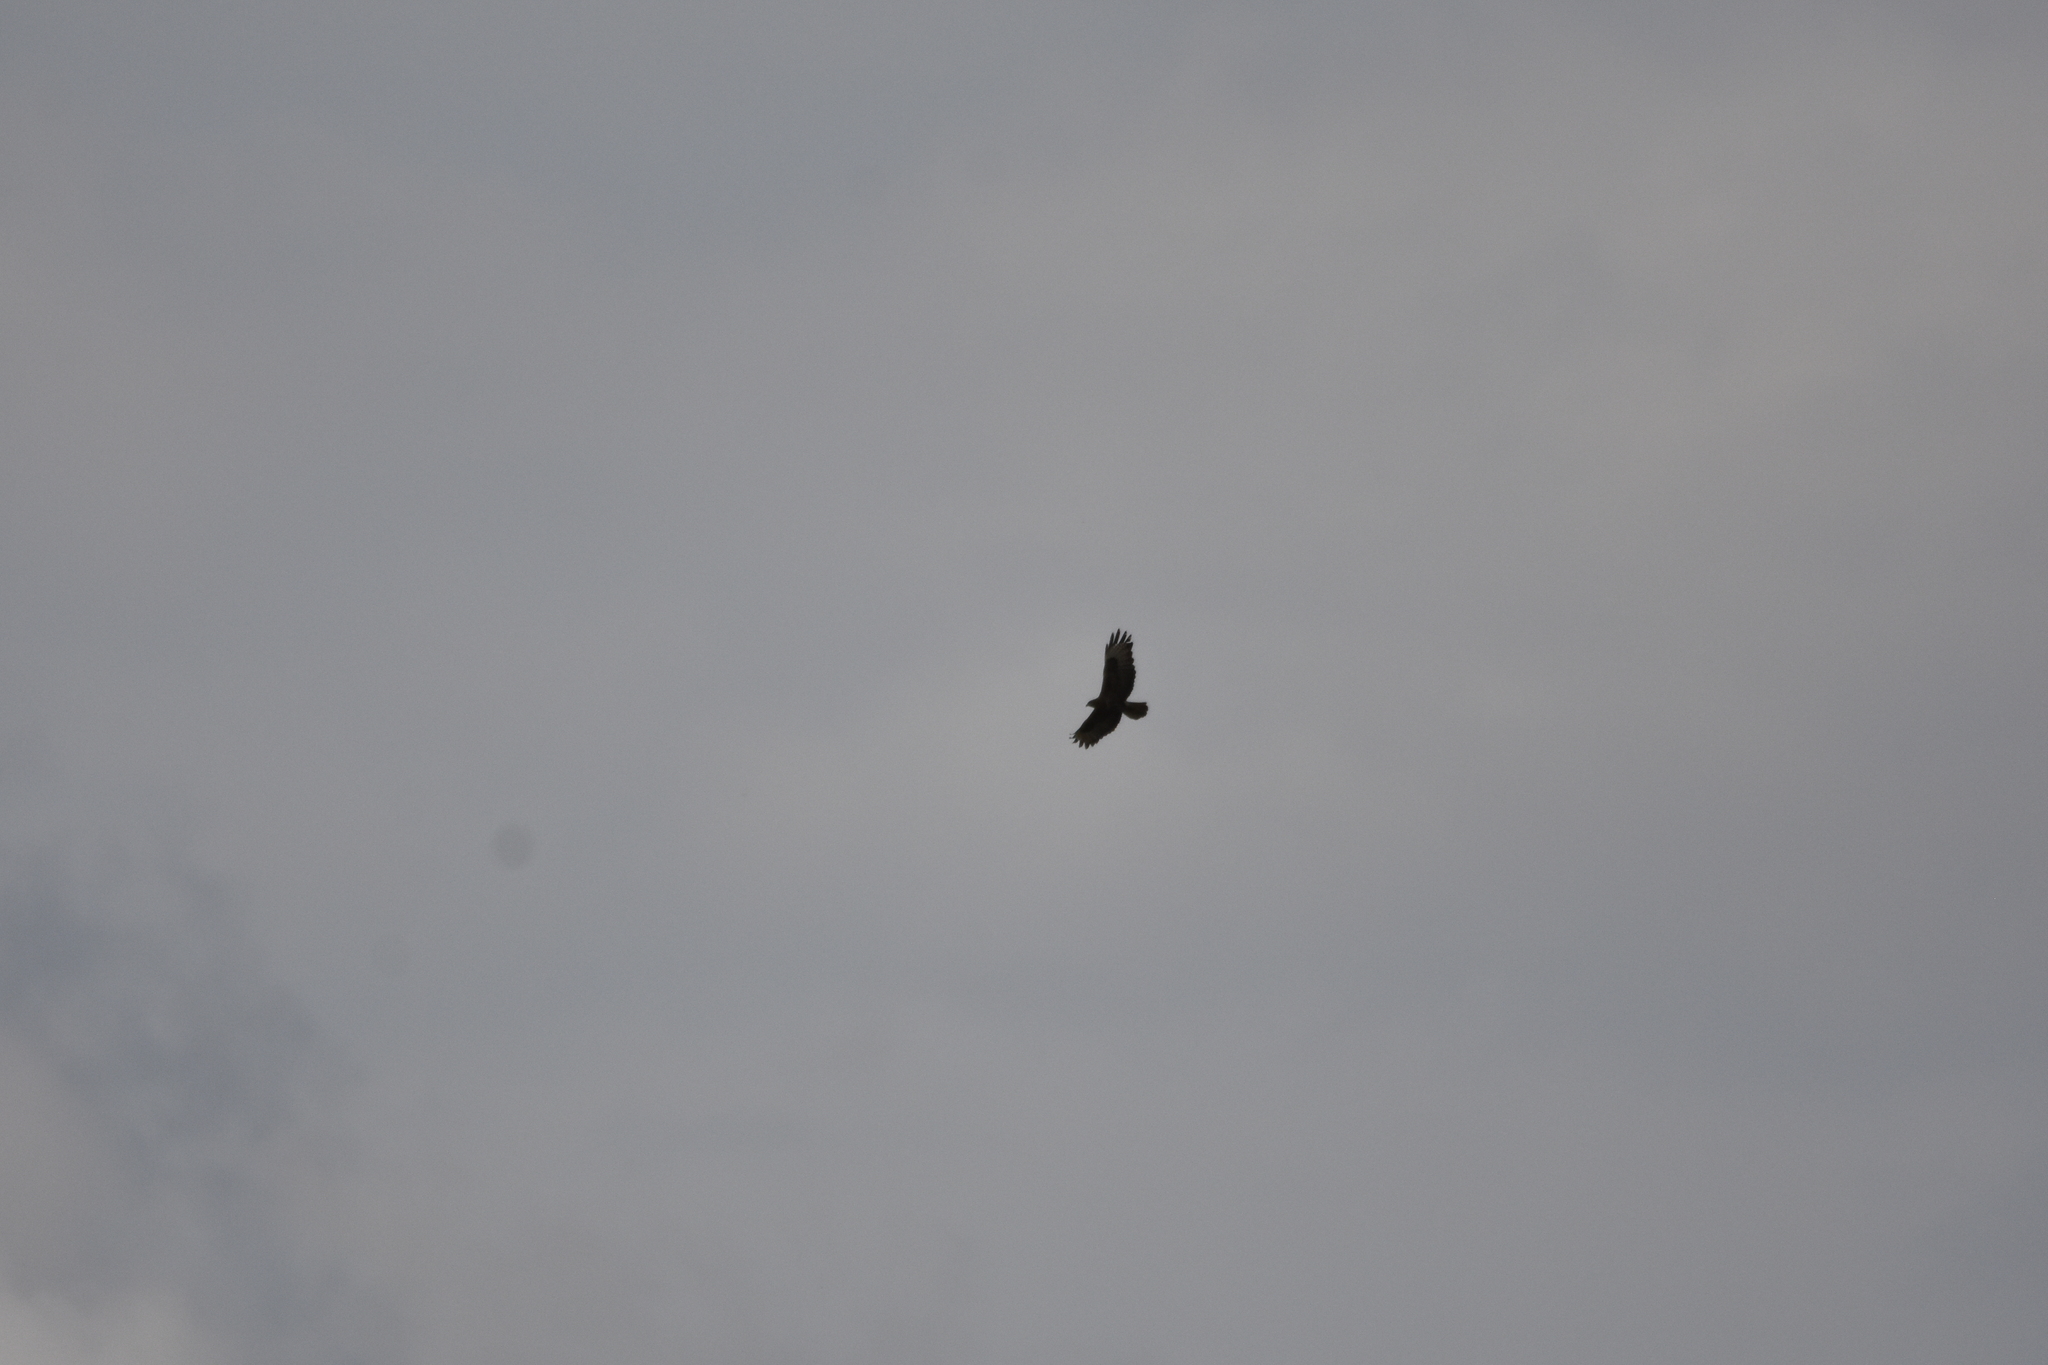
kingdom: Animalia
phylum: Chordata
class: Aves
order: Accipitriformes
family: Accipitridae
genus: Buteo
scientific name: Buteo buteo
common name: Common buzzard
